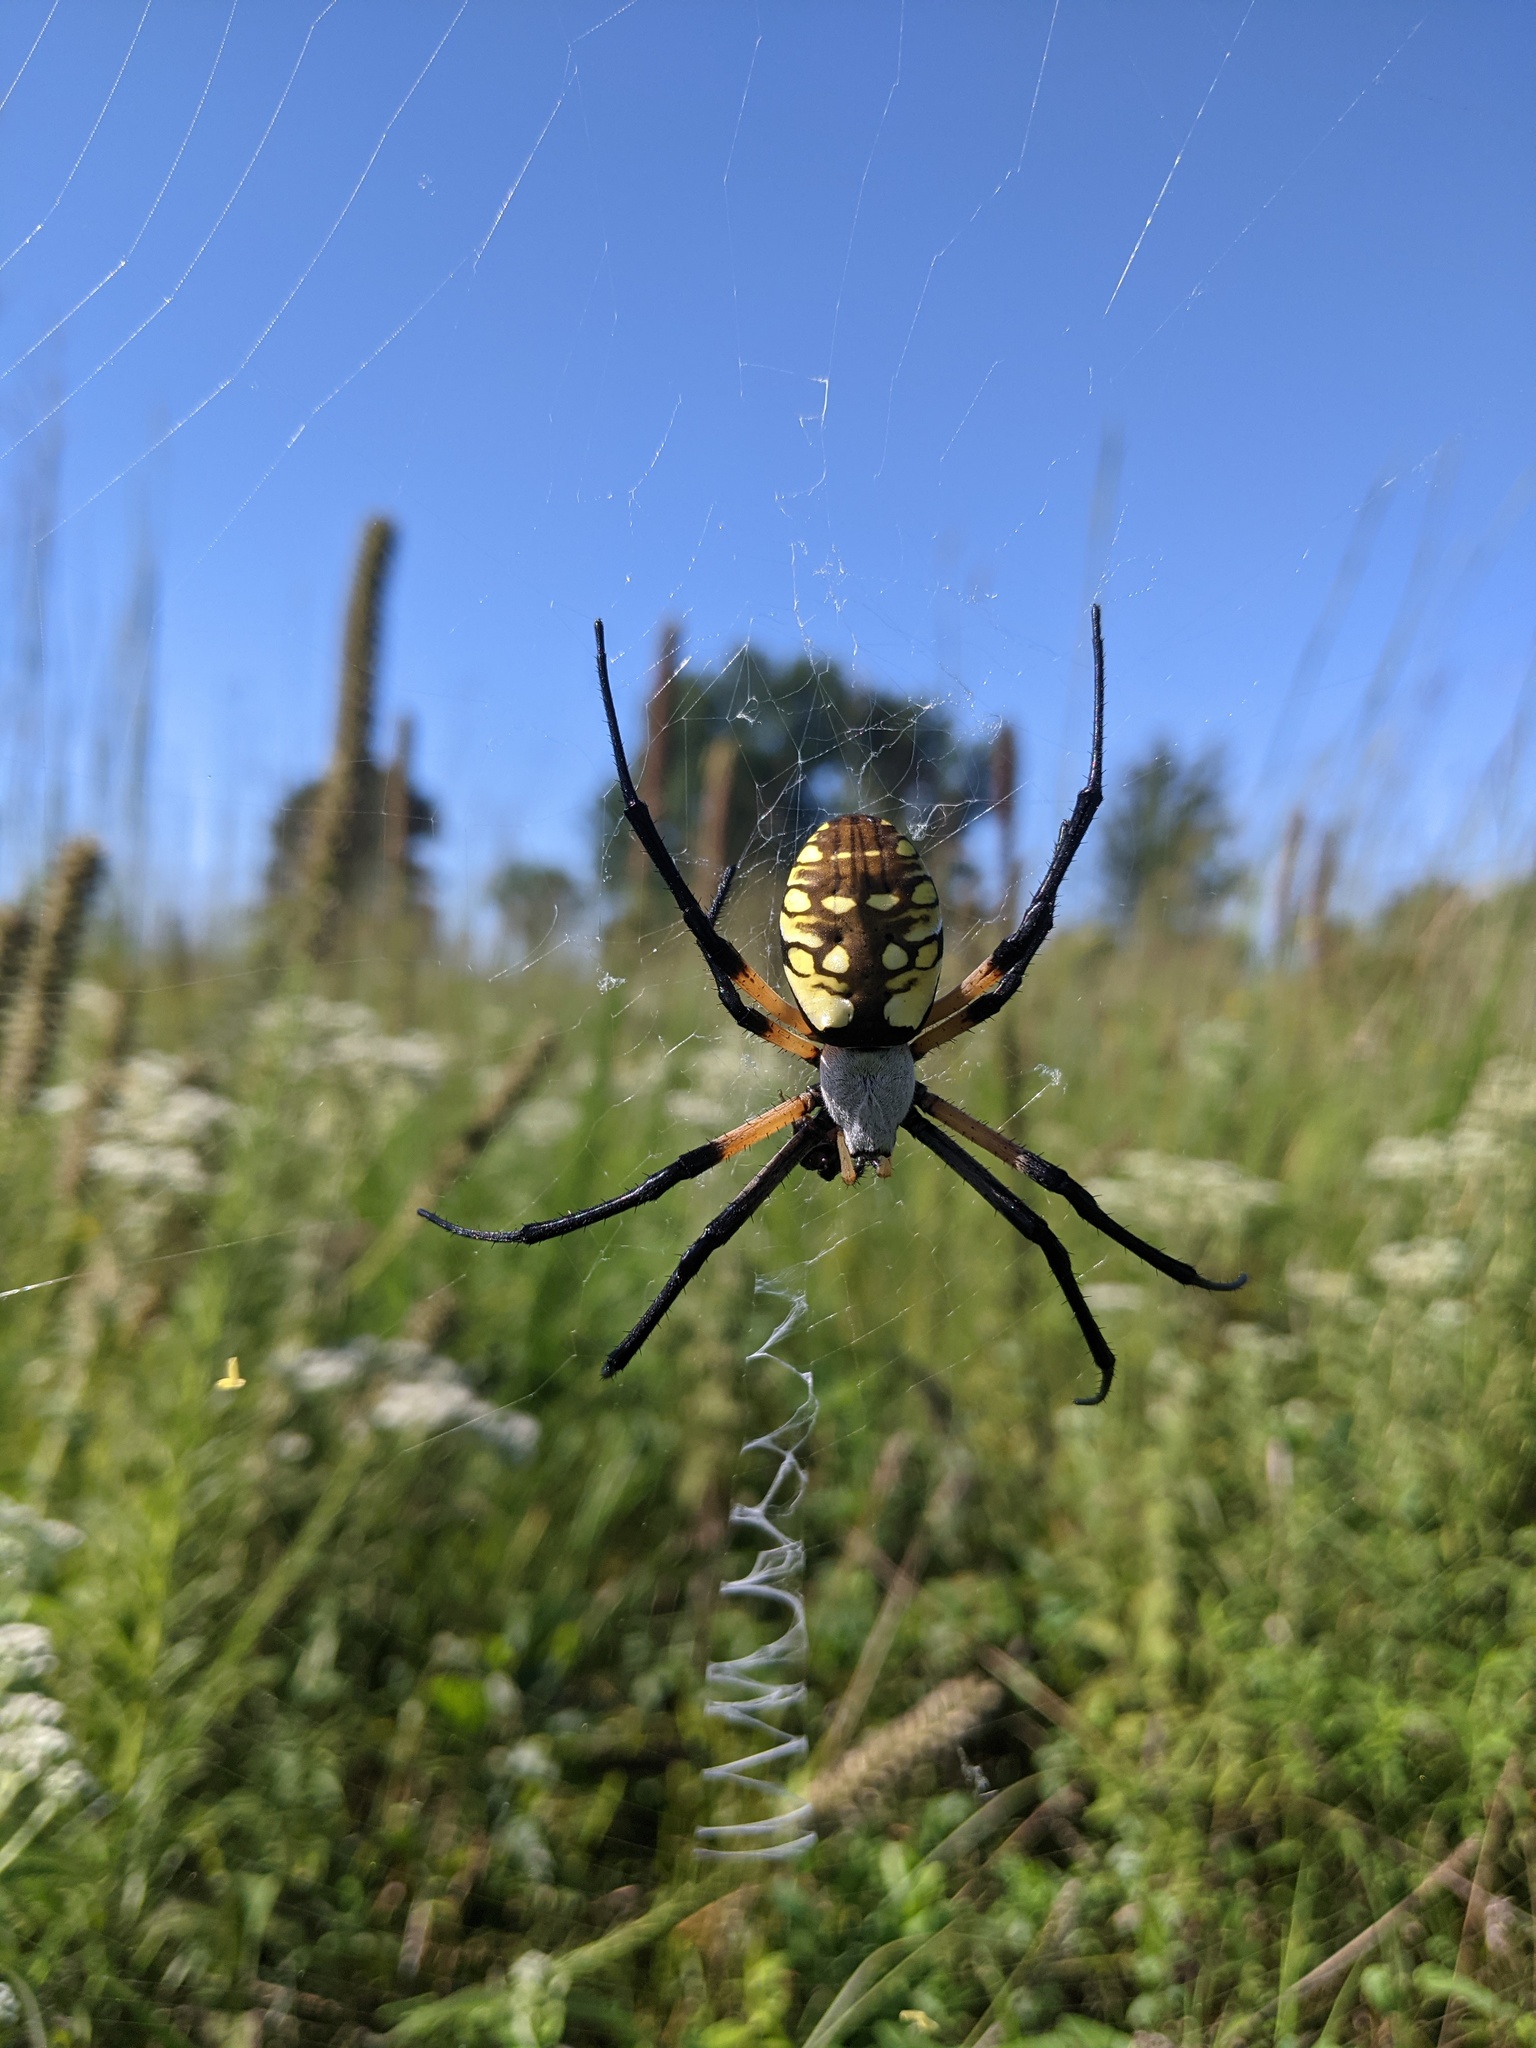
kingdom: Animalia
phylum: Arthropoda
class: Arachnida
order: Araneae
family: Araneidae
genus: Argiope
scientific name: Argiope aurantia
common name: Orb weavers
